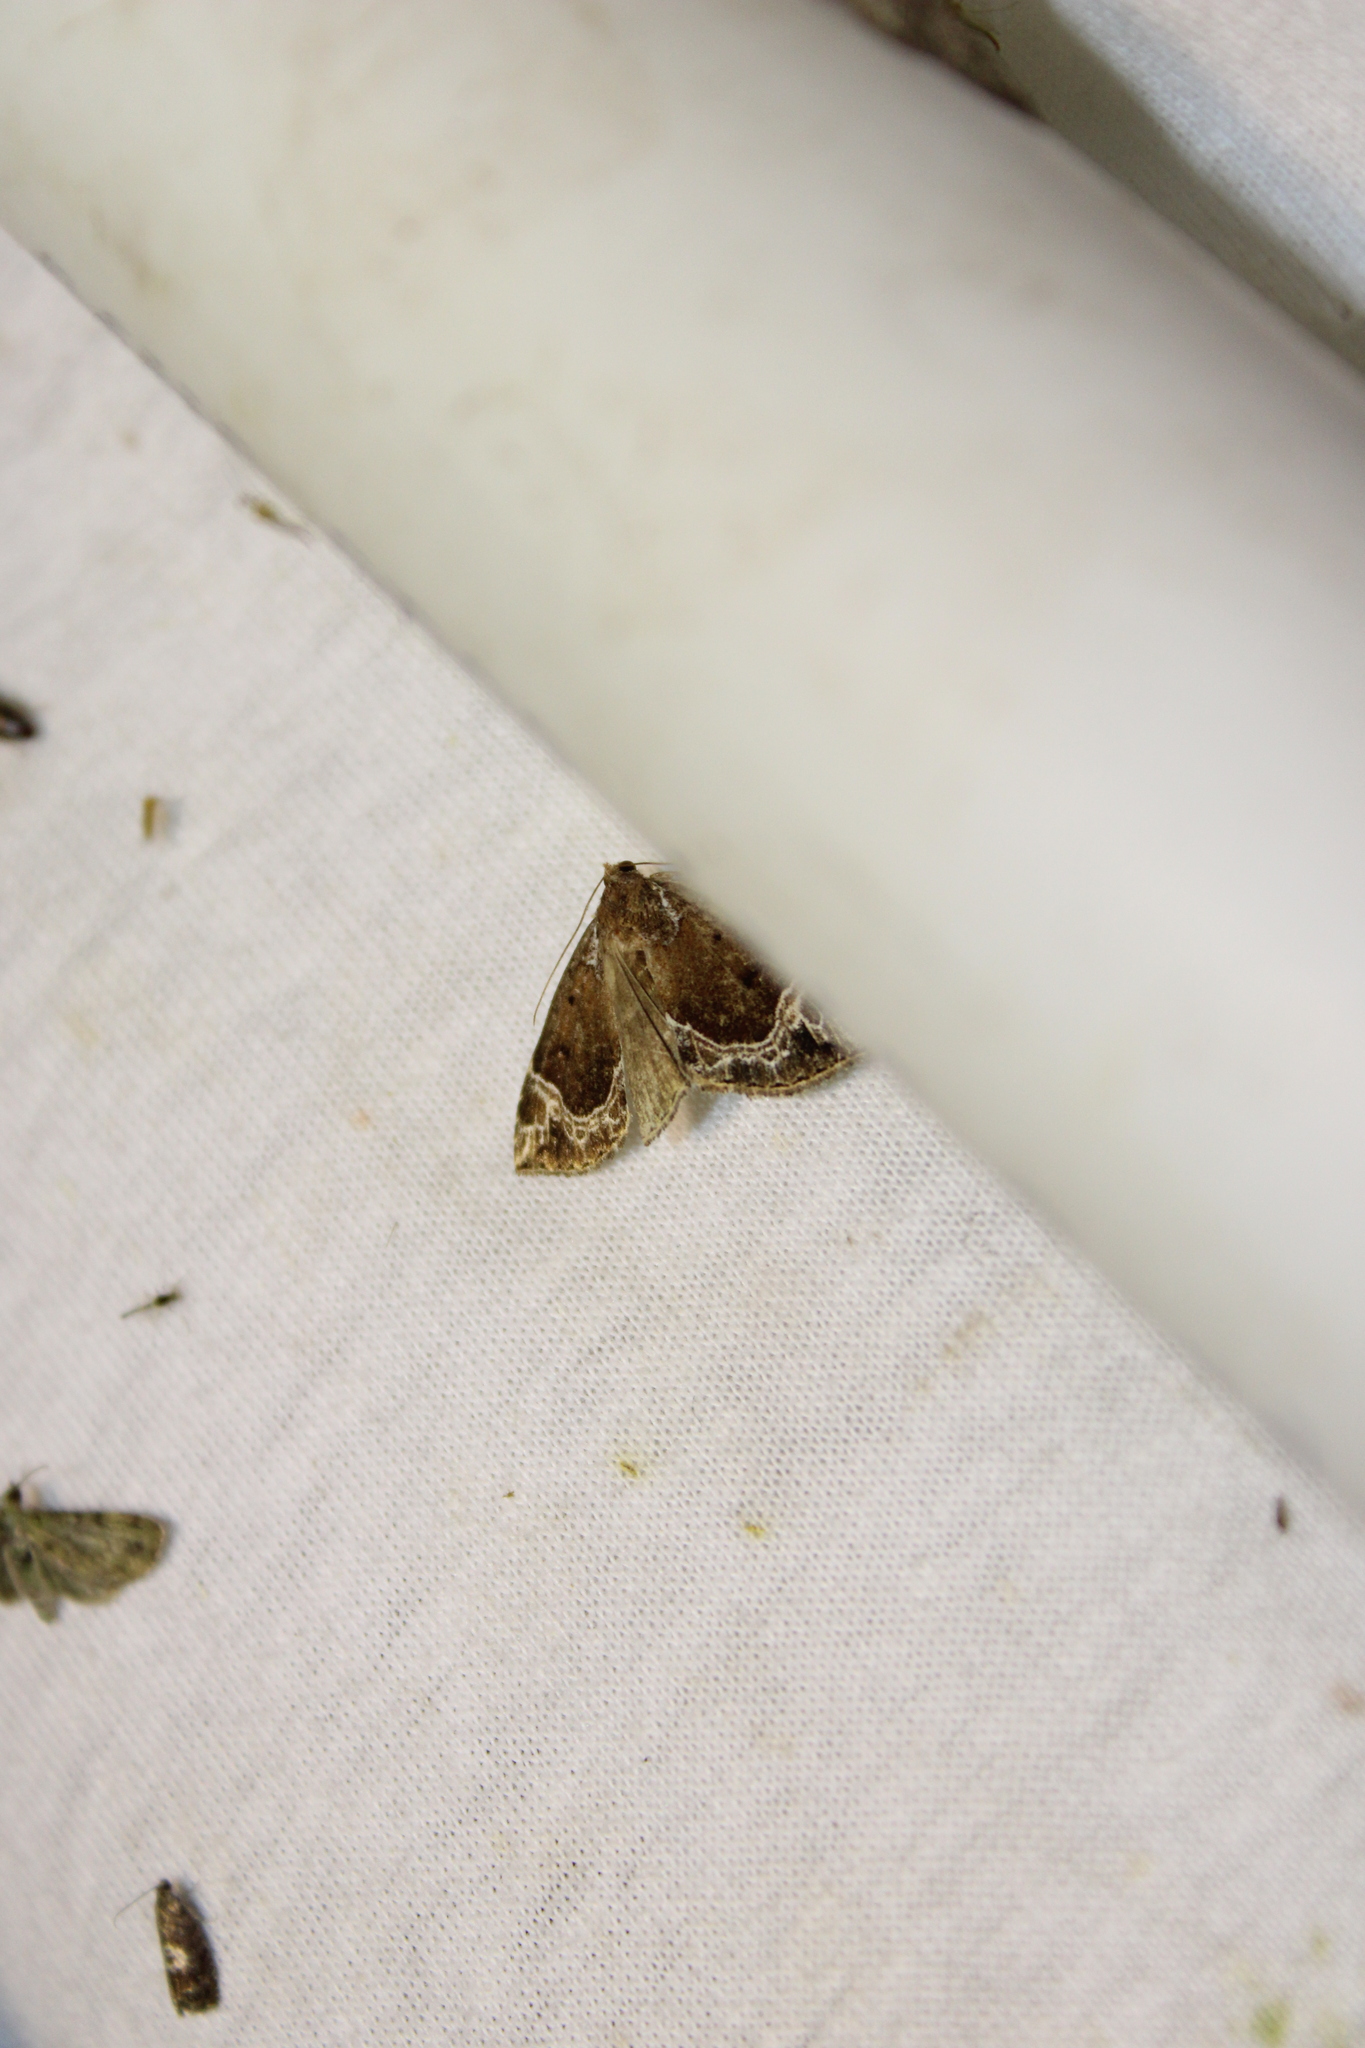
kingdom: Animalia
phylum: Arthropoda
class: Insecta
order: Lepidoptera
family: Erebidae
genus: Hypena
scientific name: Hypena abalienalis
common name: White-lined snout
